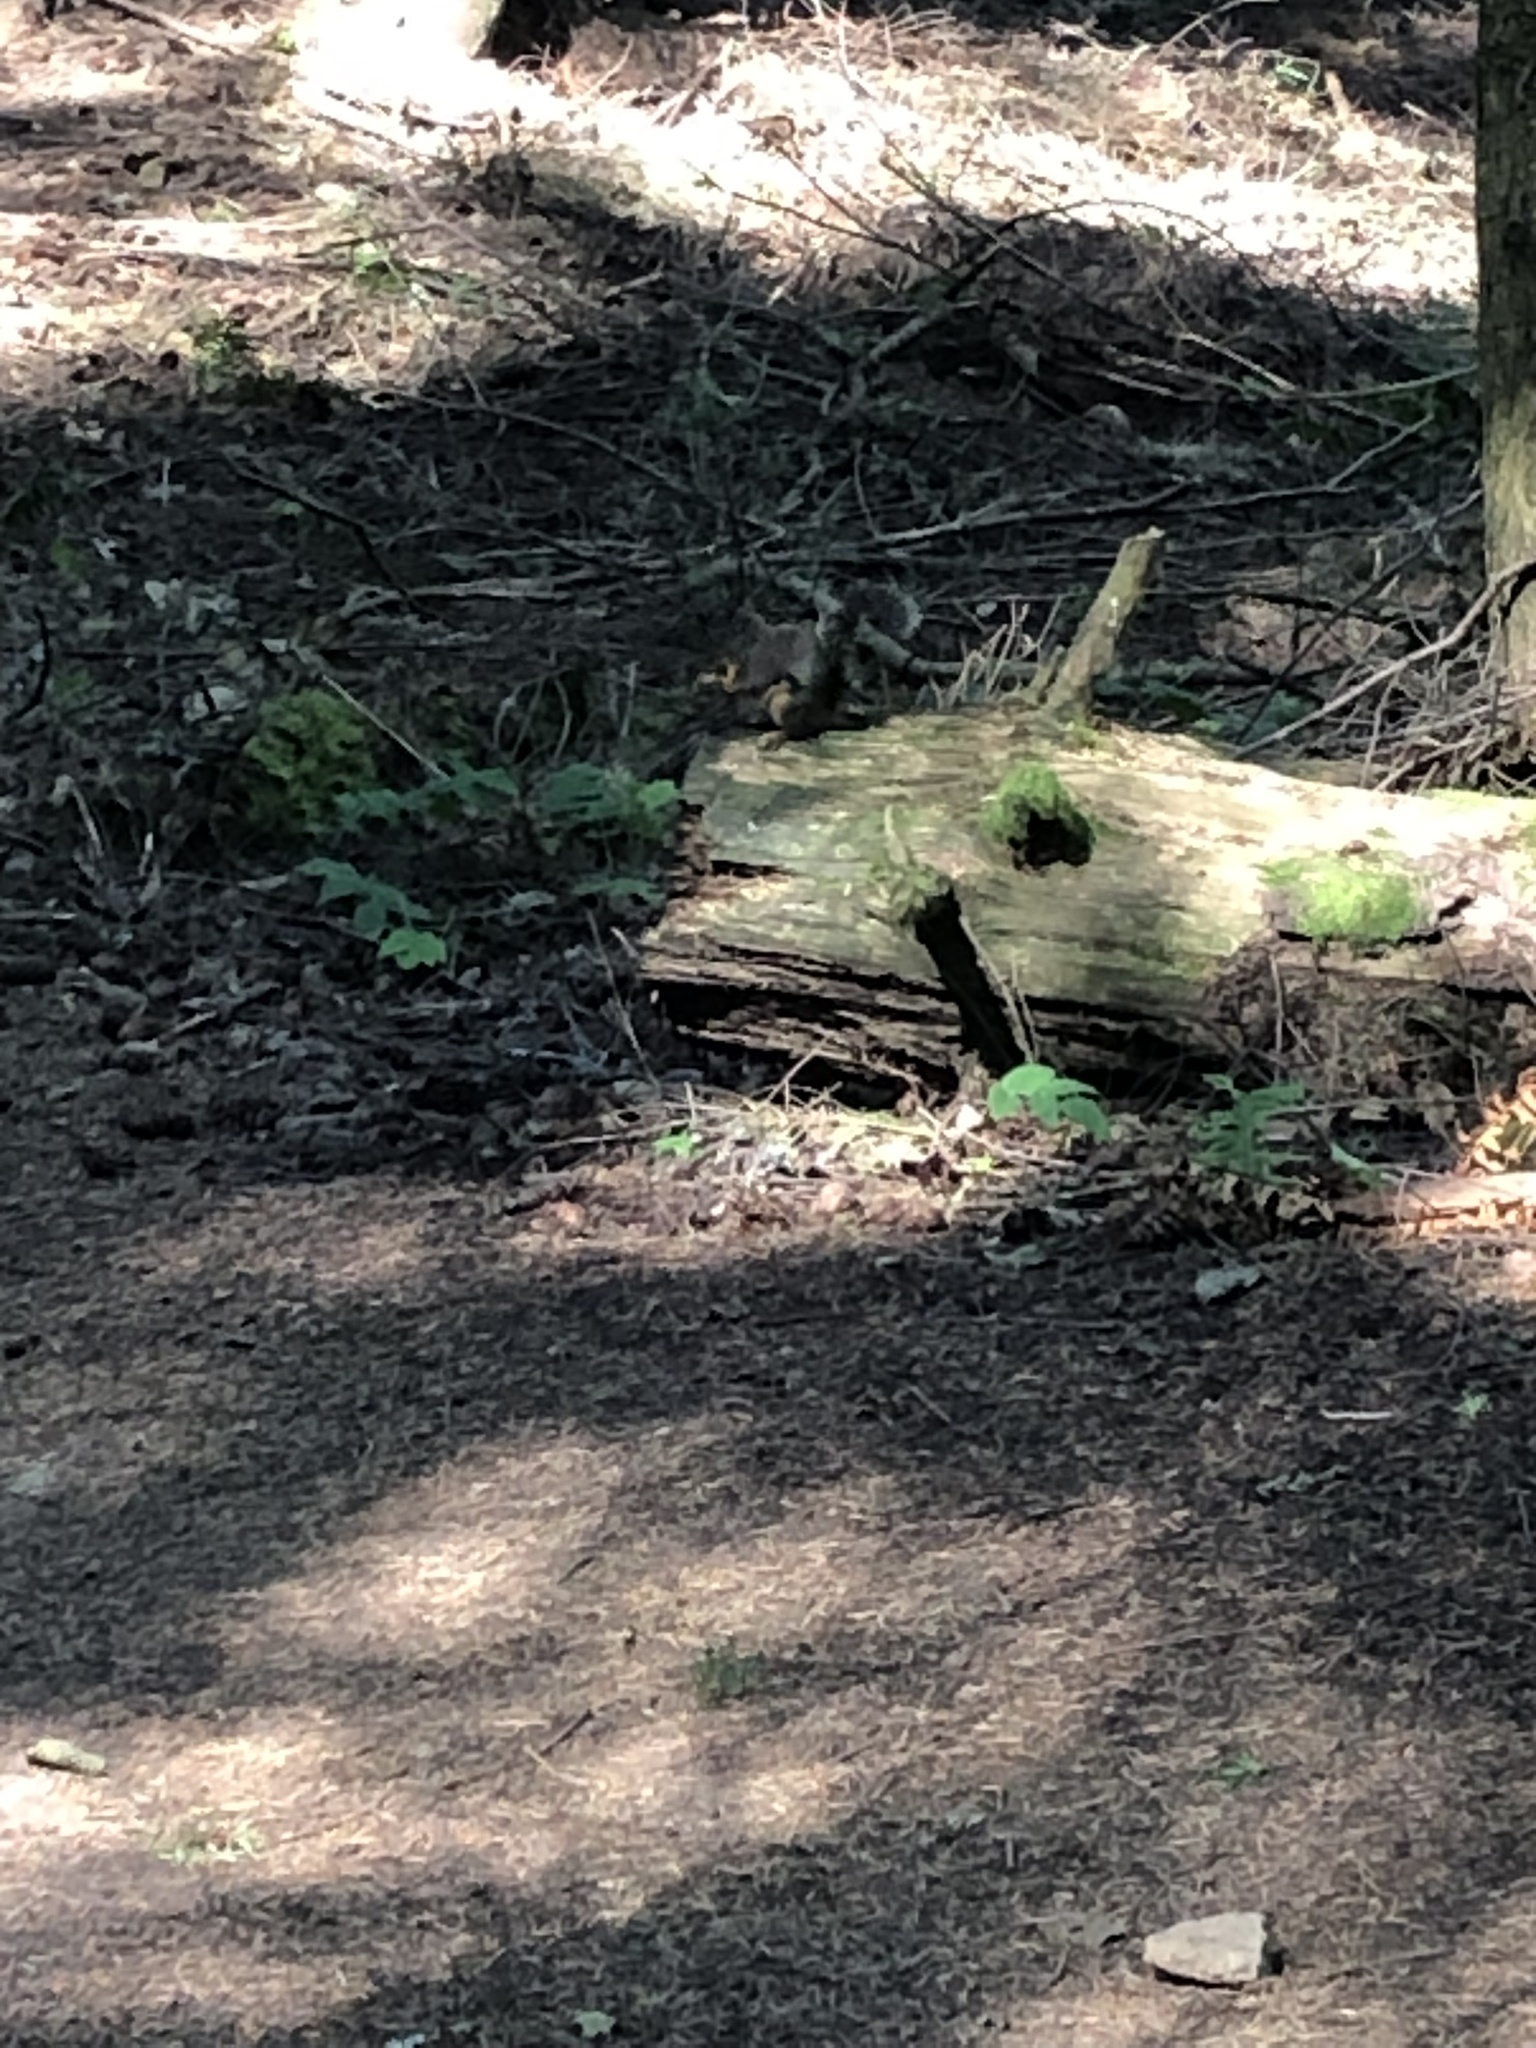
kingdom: Animalia
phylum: Chordata
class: Mammalia
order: Rodentia
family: Sciuridae
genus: Tamiasciurus
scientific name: Tamiasciurus douglasii
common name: Douglas's squirrel
